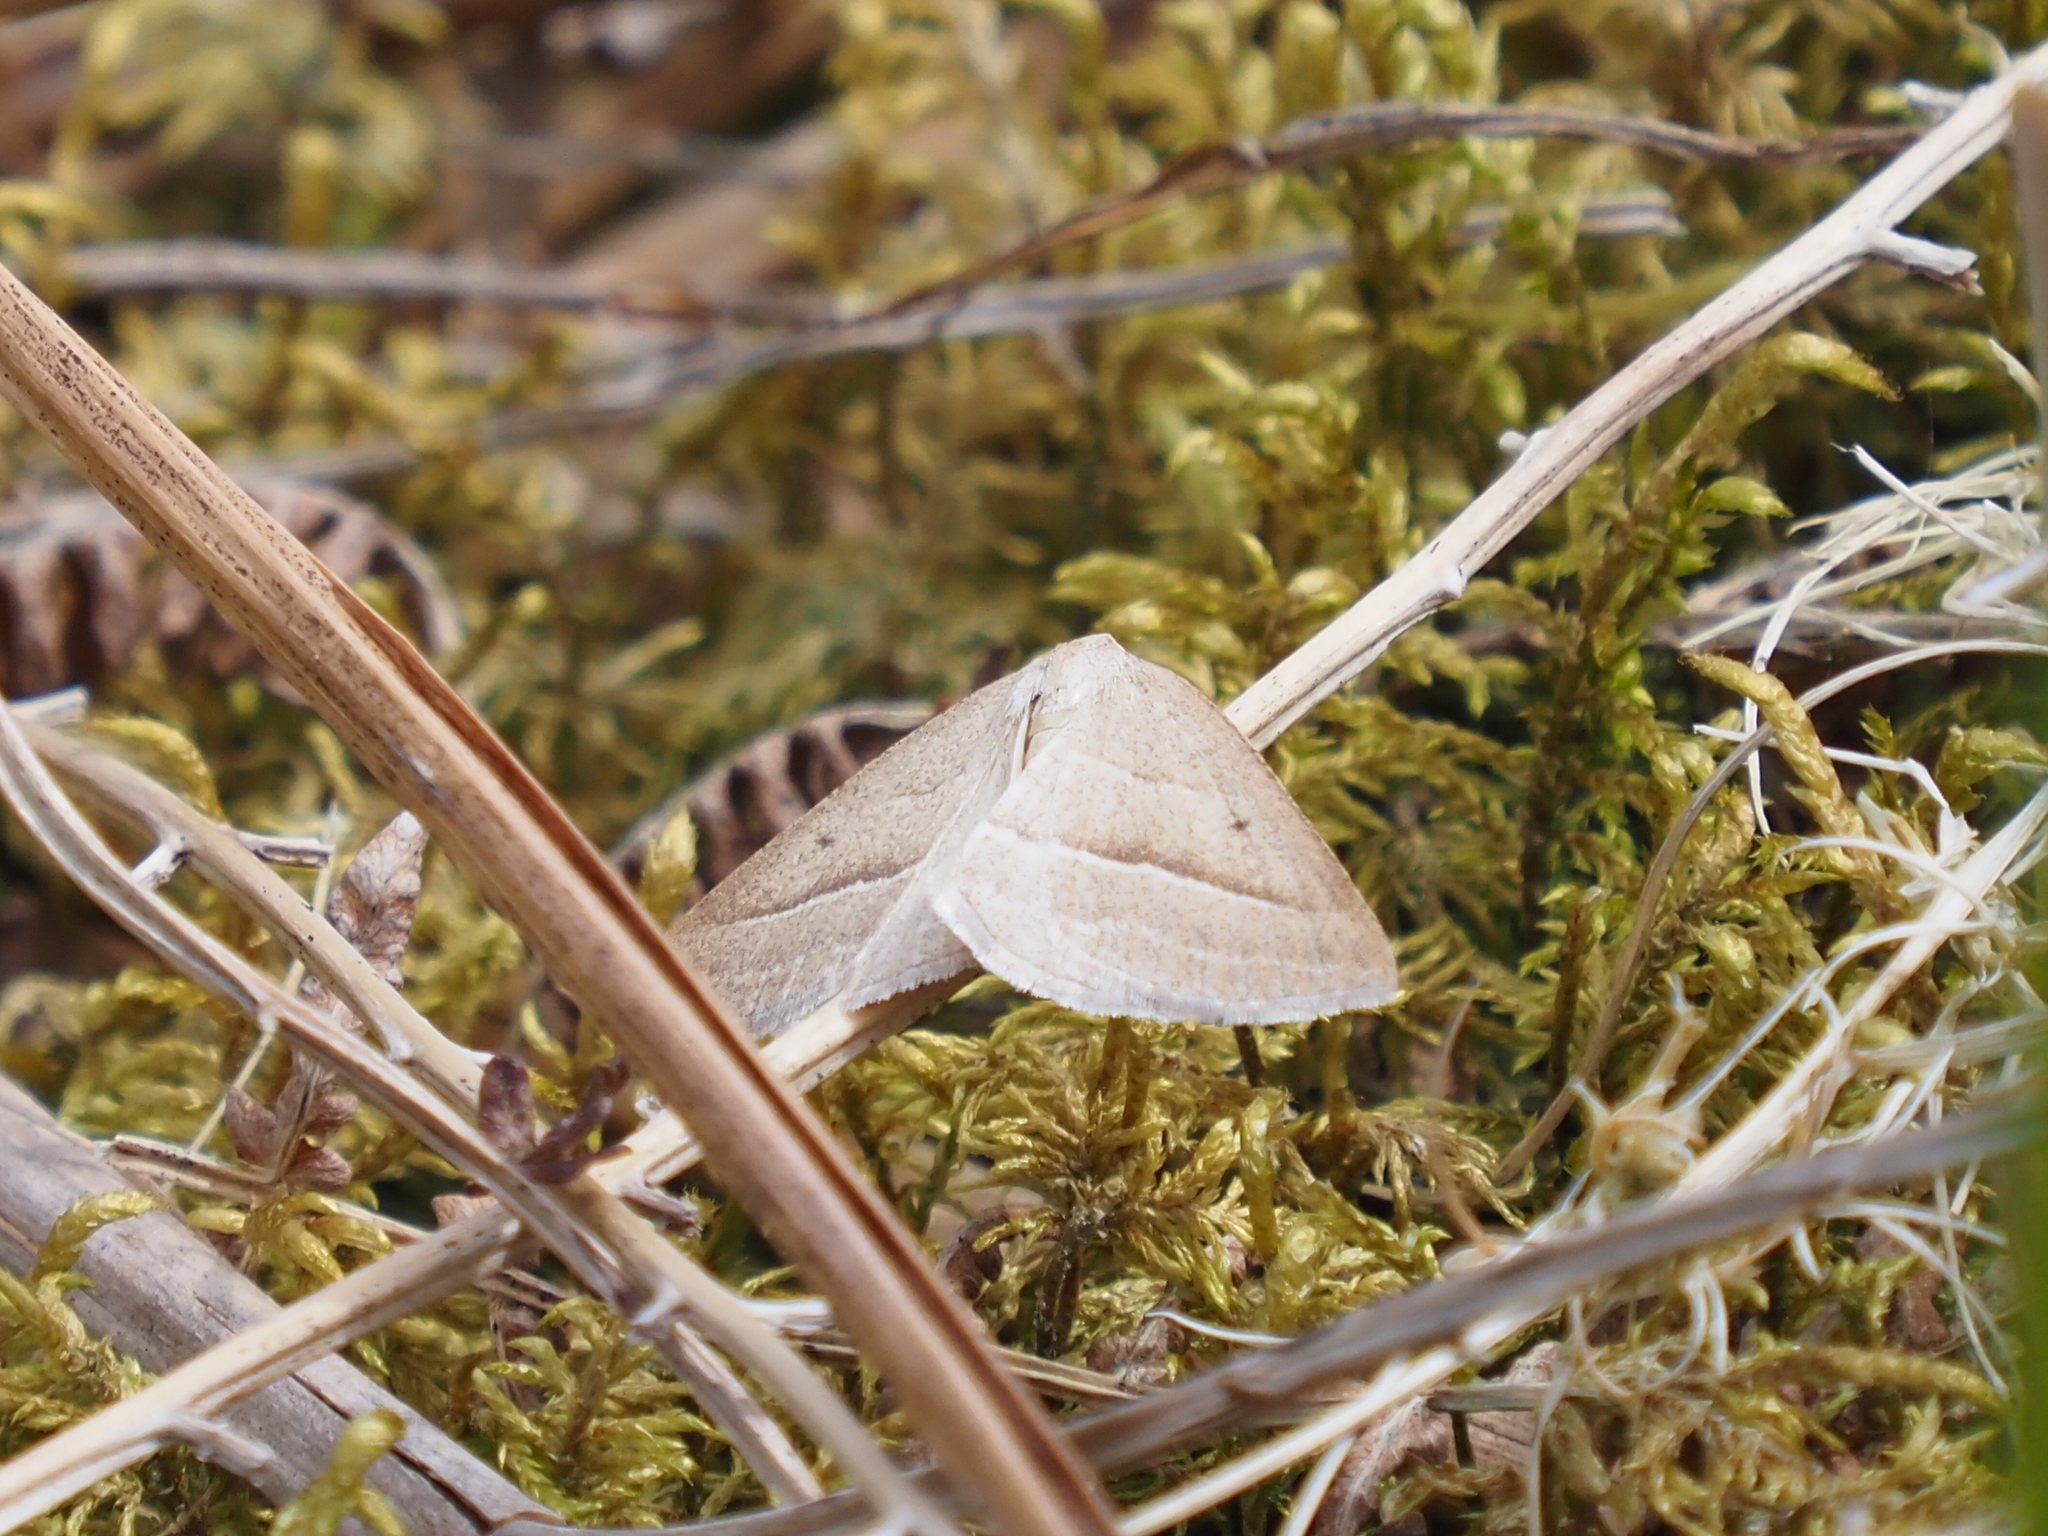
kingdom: Animalia
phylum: Arthropoda
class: Insecta
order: Lepidoptera
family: Pterophoridae
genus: Pterophorus
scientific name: Pterophorus Petrophora chlorosata
